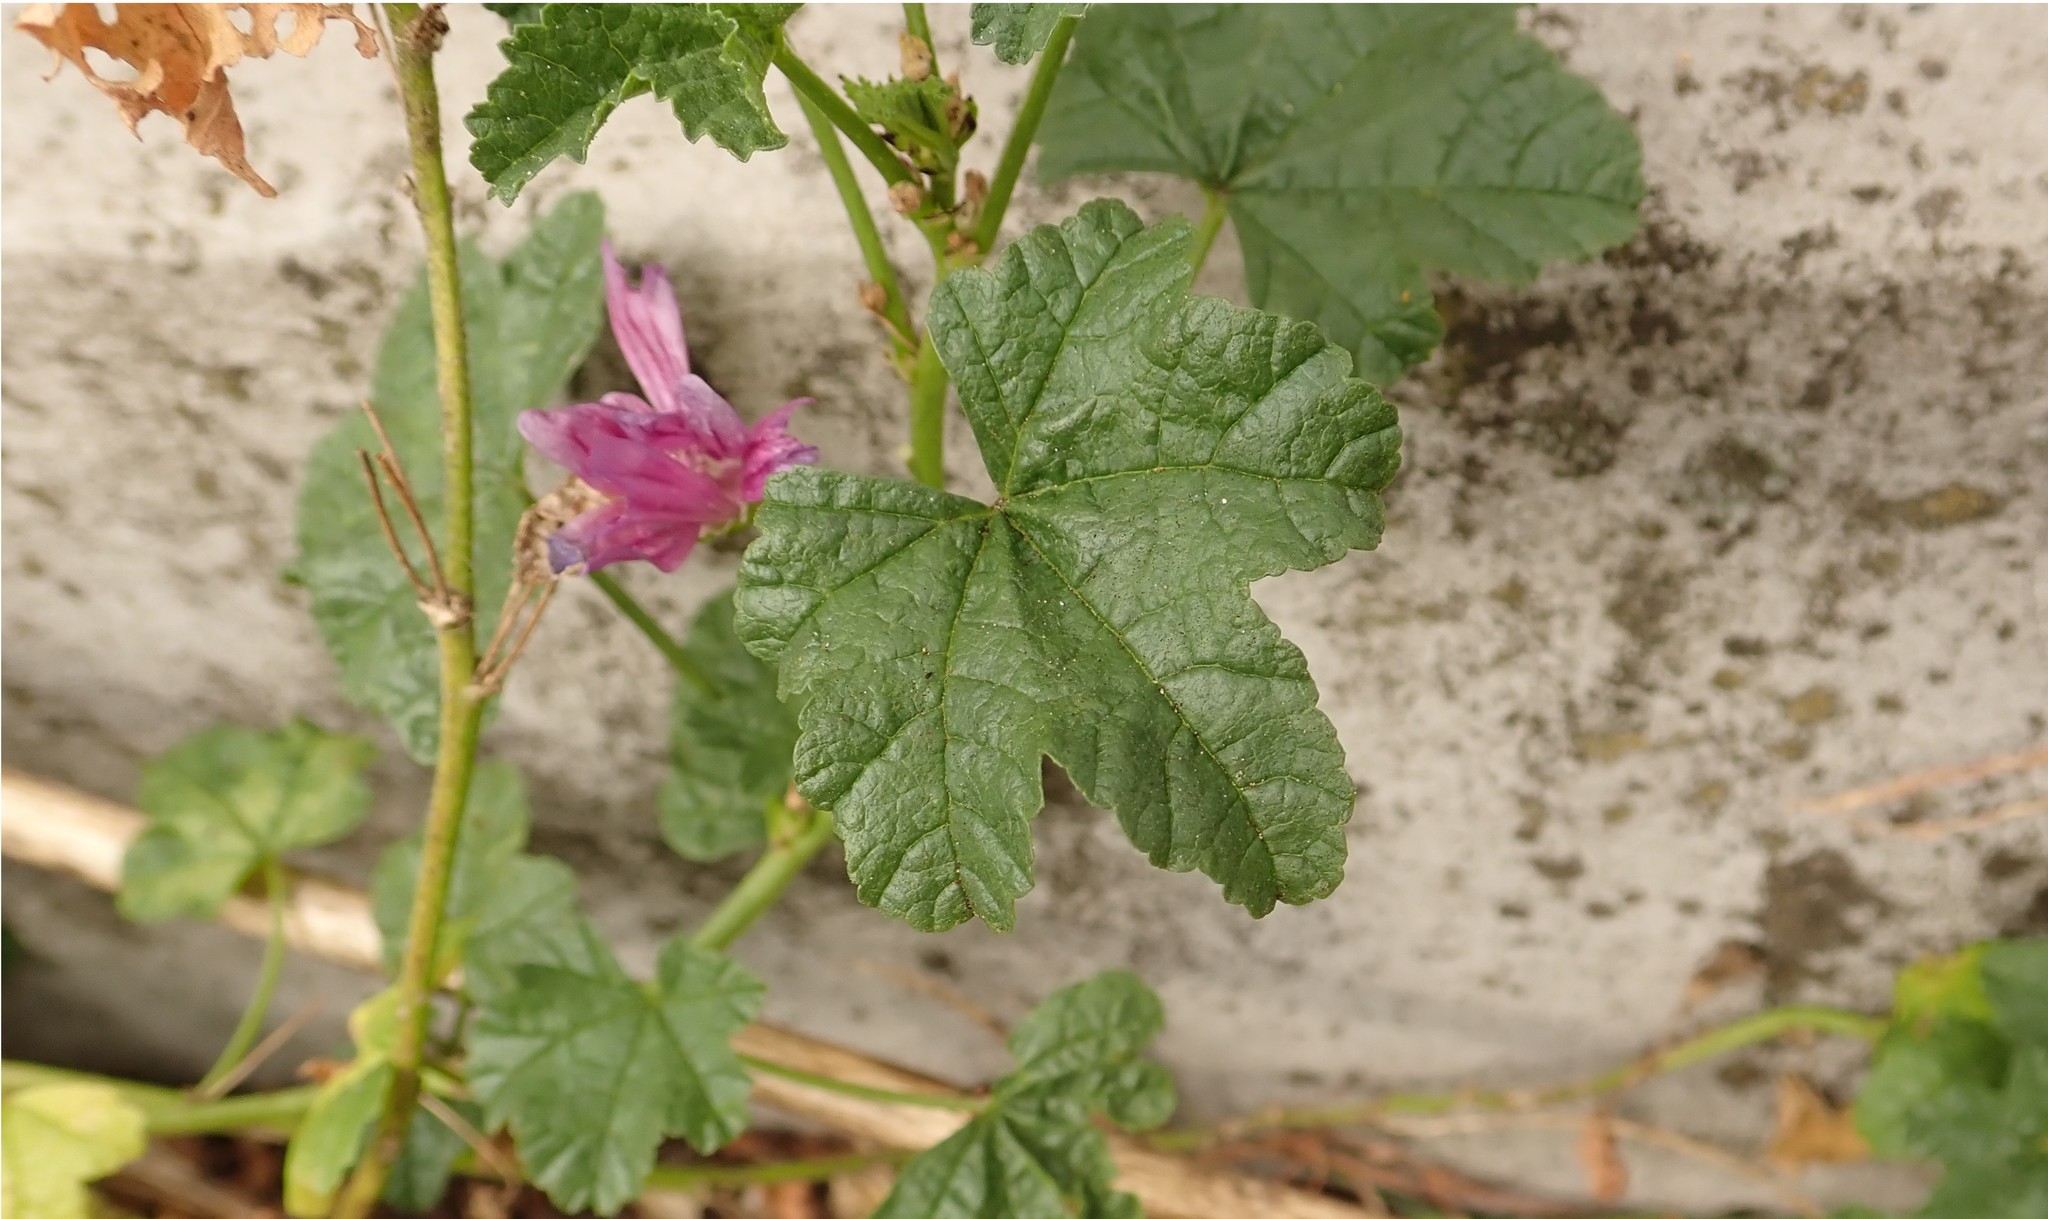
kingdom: Plantae
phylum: Tracheophyta
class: Magnoliopsida
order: Malvales
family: Malvaceae
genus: Malva
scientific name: Malva sylvestris
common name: Common mallow
